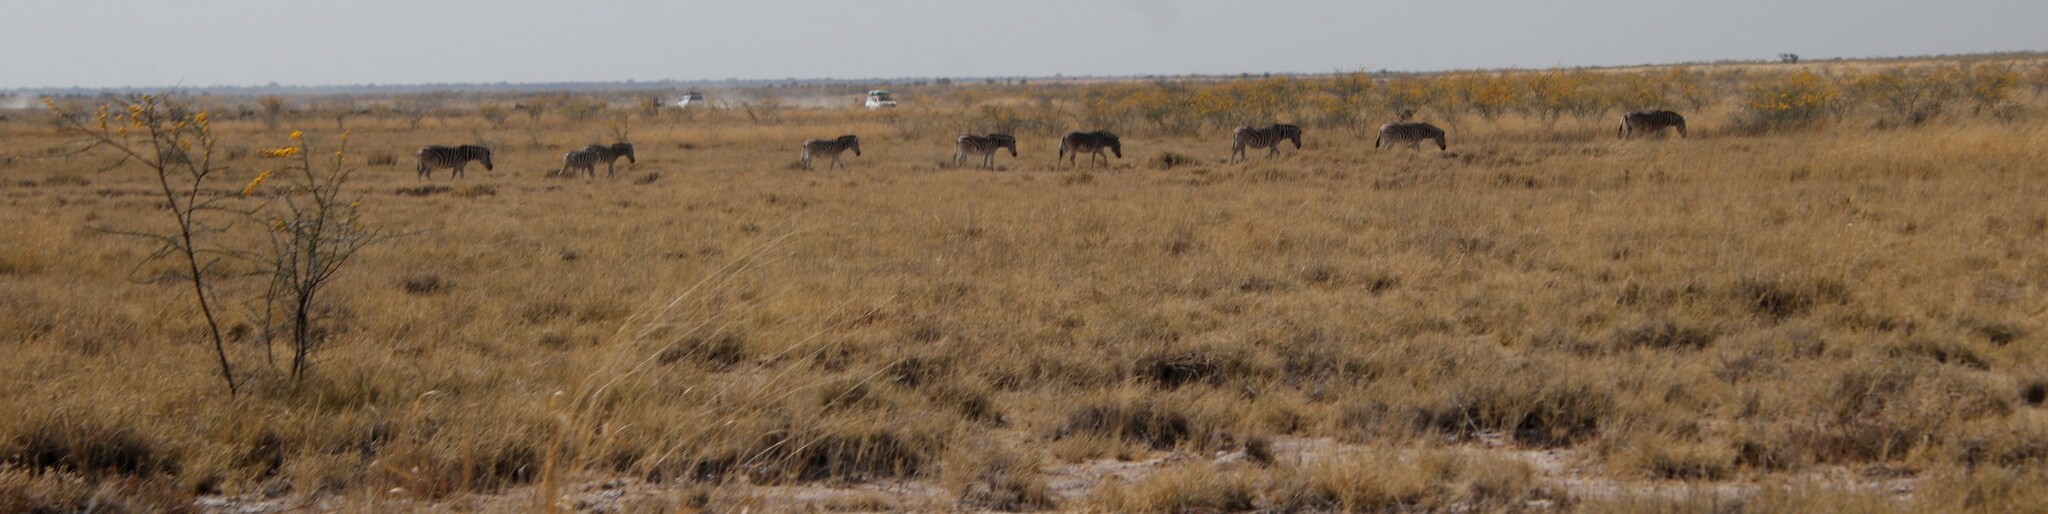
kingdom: Animalia
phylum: Chordata
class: Mammalia
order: Perissodactyla
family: Equidae
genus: Equus
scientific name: Equus quagga
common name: Plains zebra
